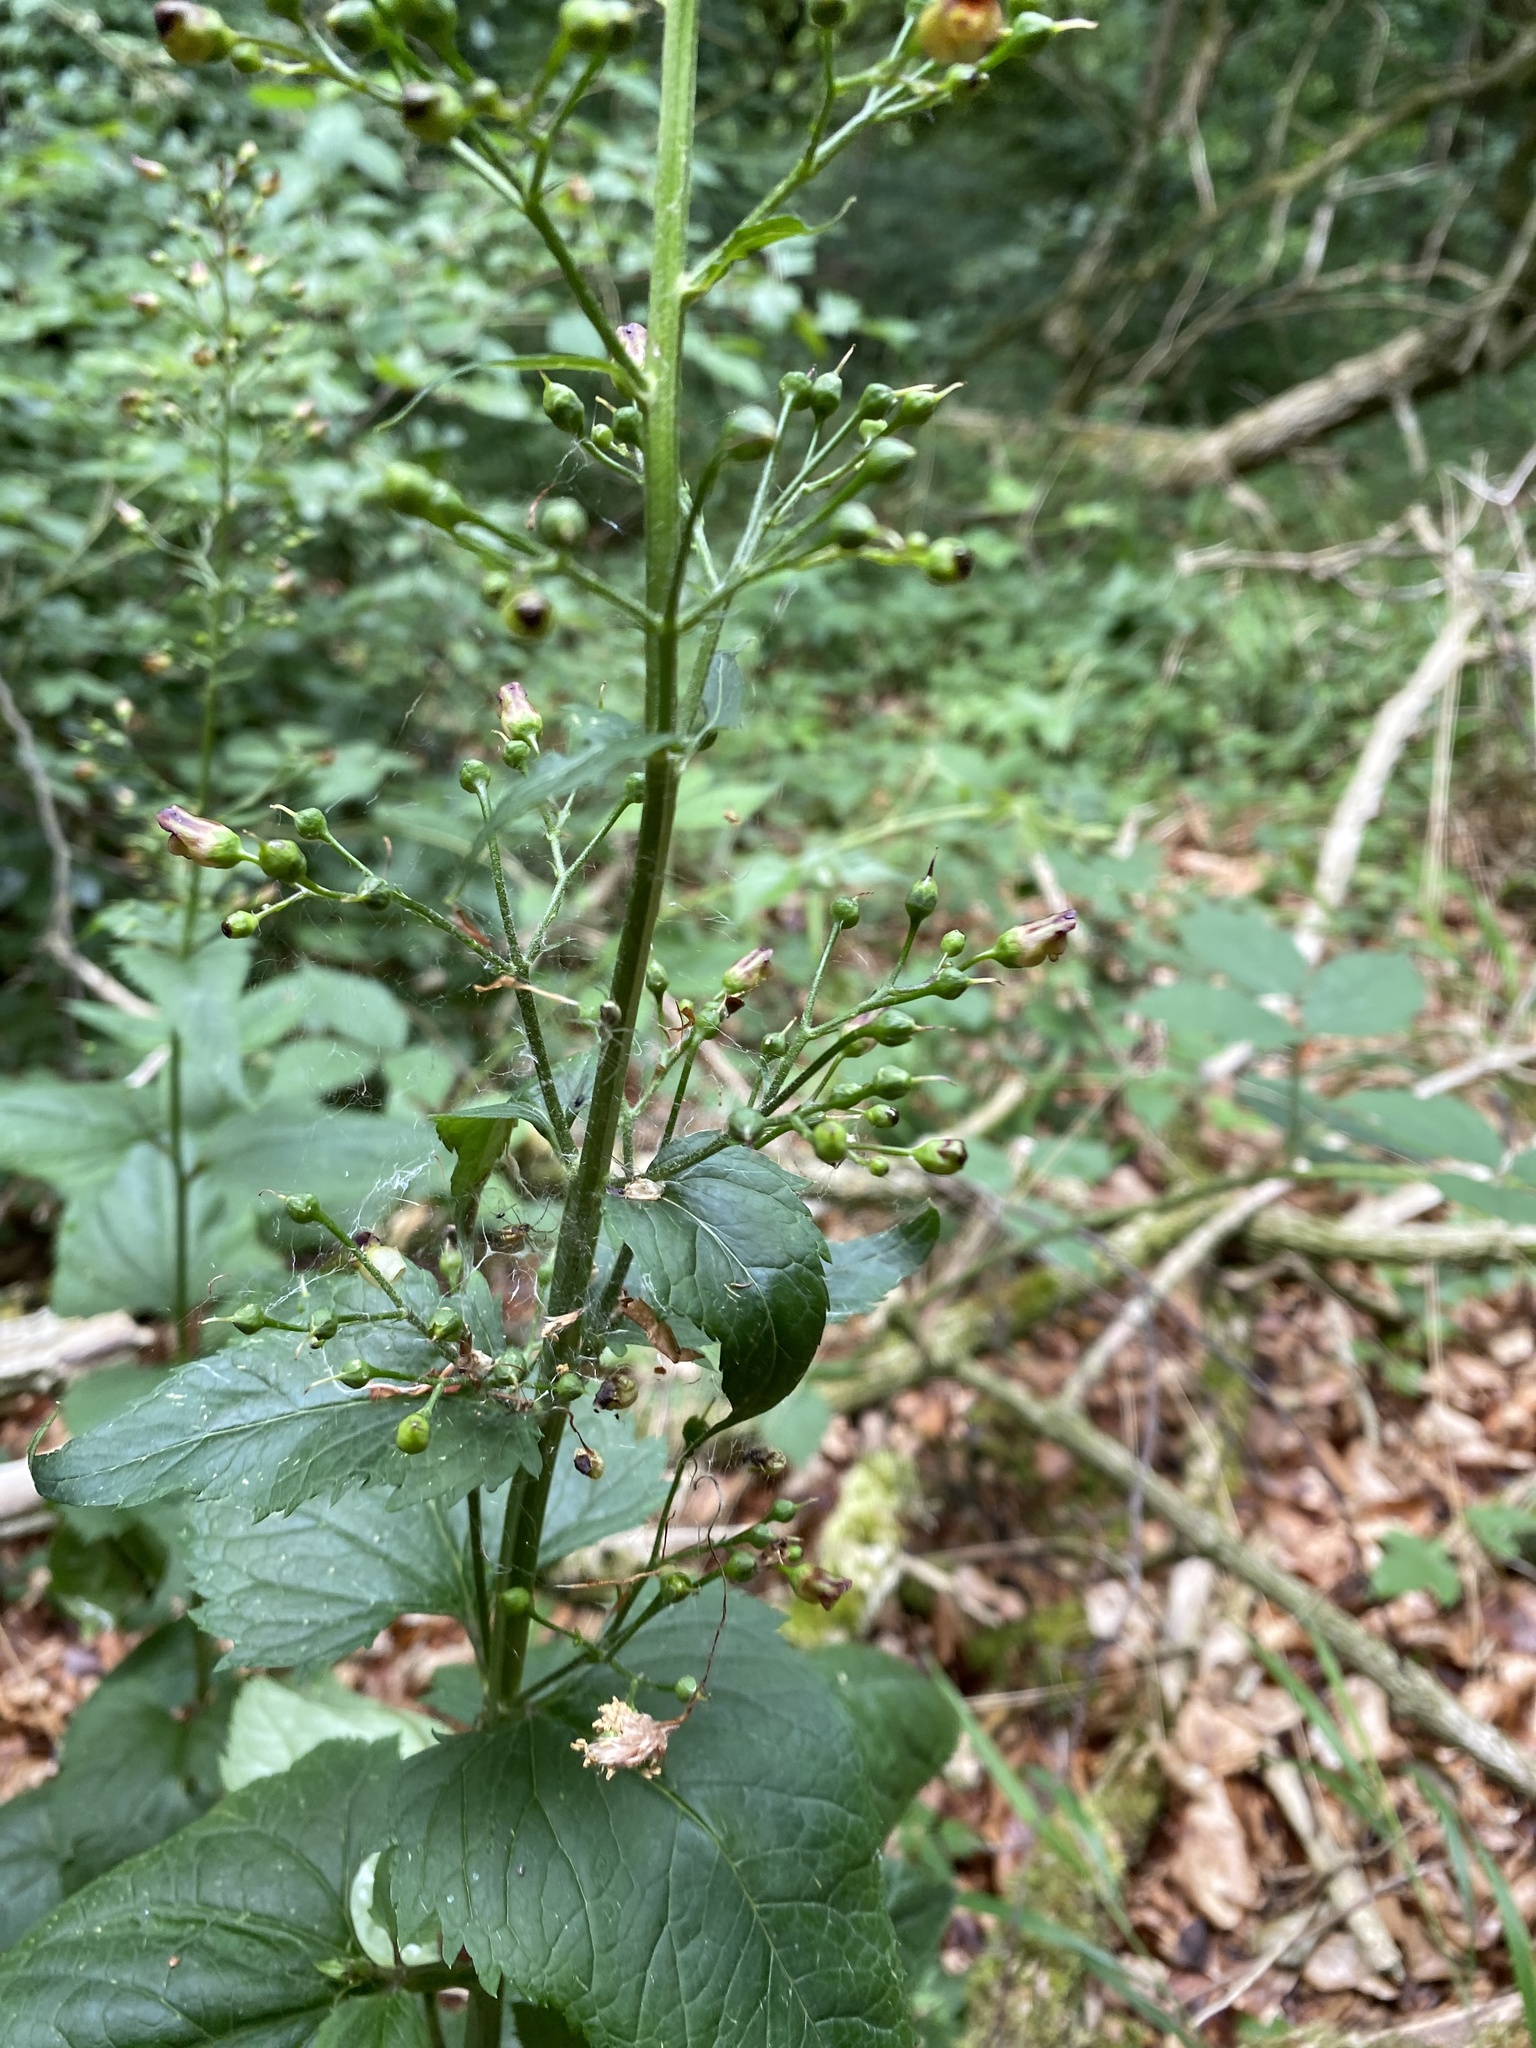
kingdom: Plantae
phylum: Tracheophyta
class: Magnoliopsida
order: Lamiales
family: Scrophulariaceae
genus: Scrophularia
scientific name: Scrophularia nodosa
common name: Common figwort
